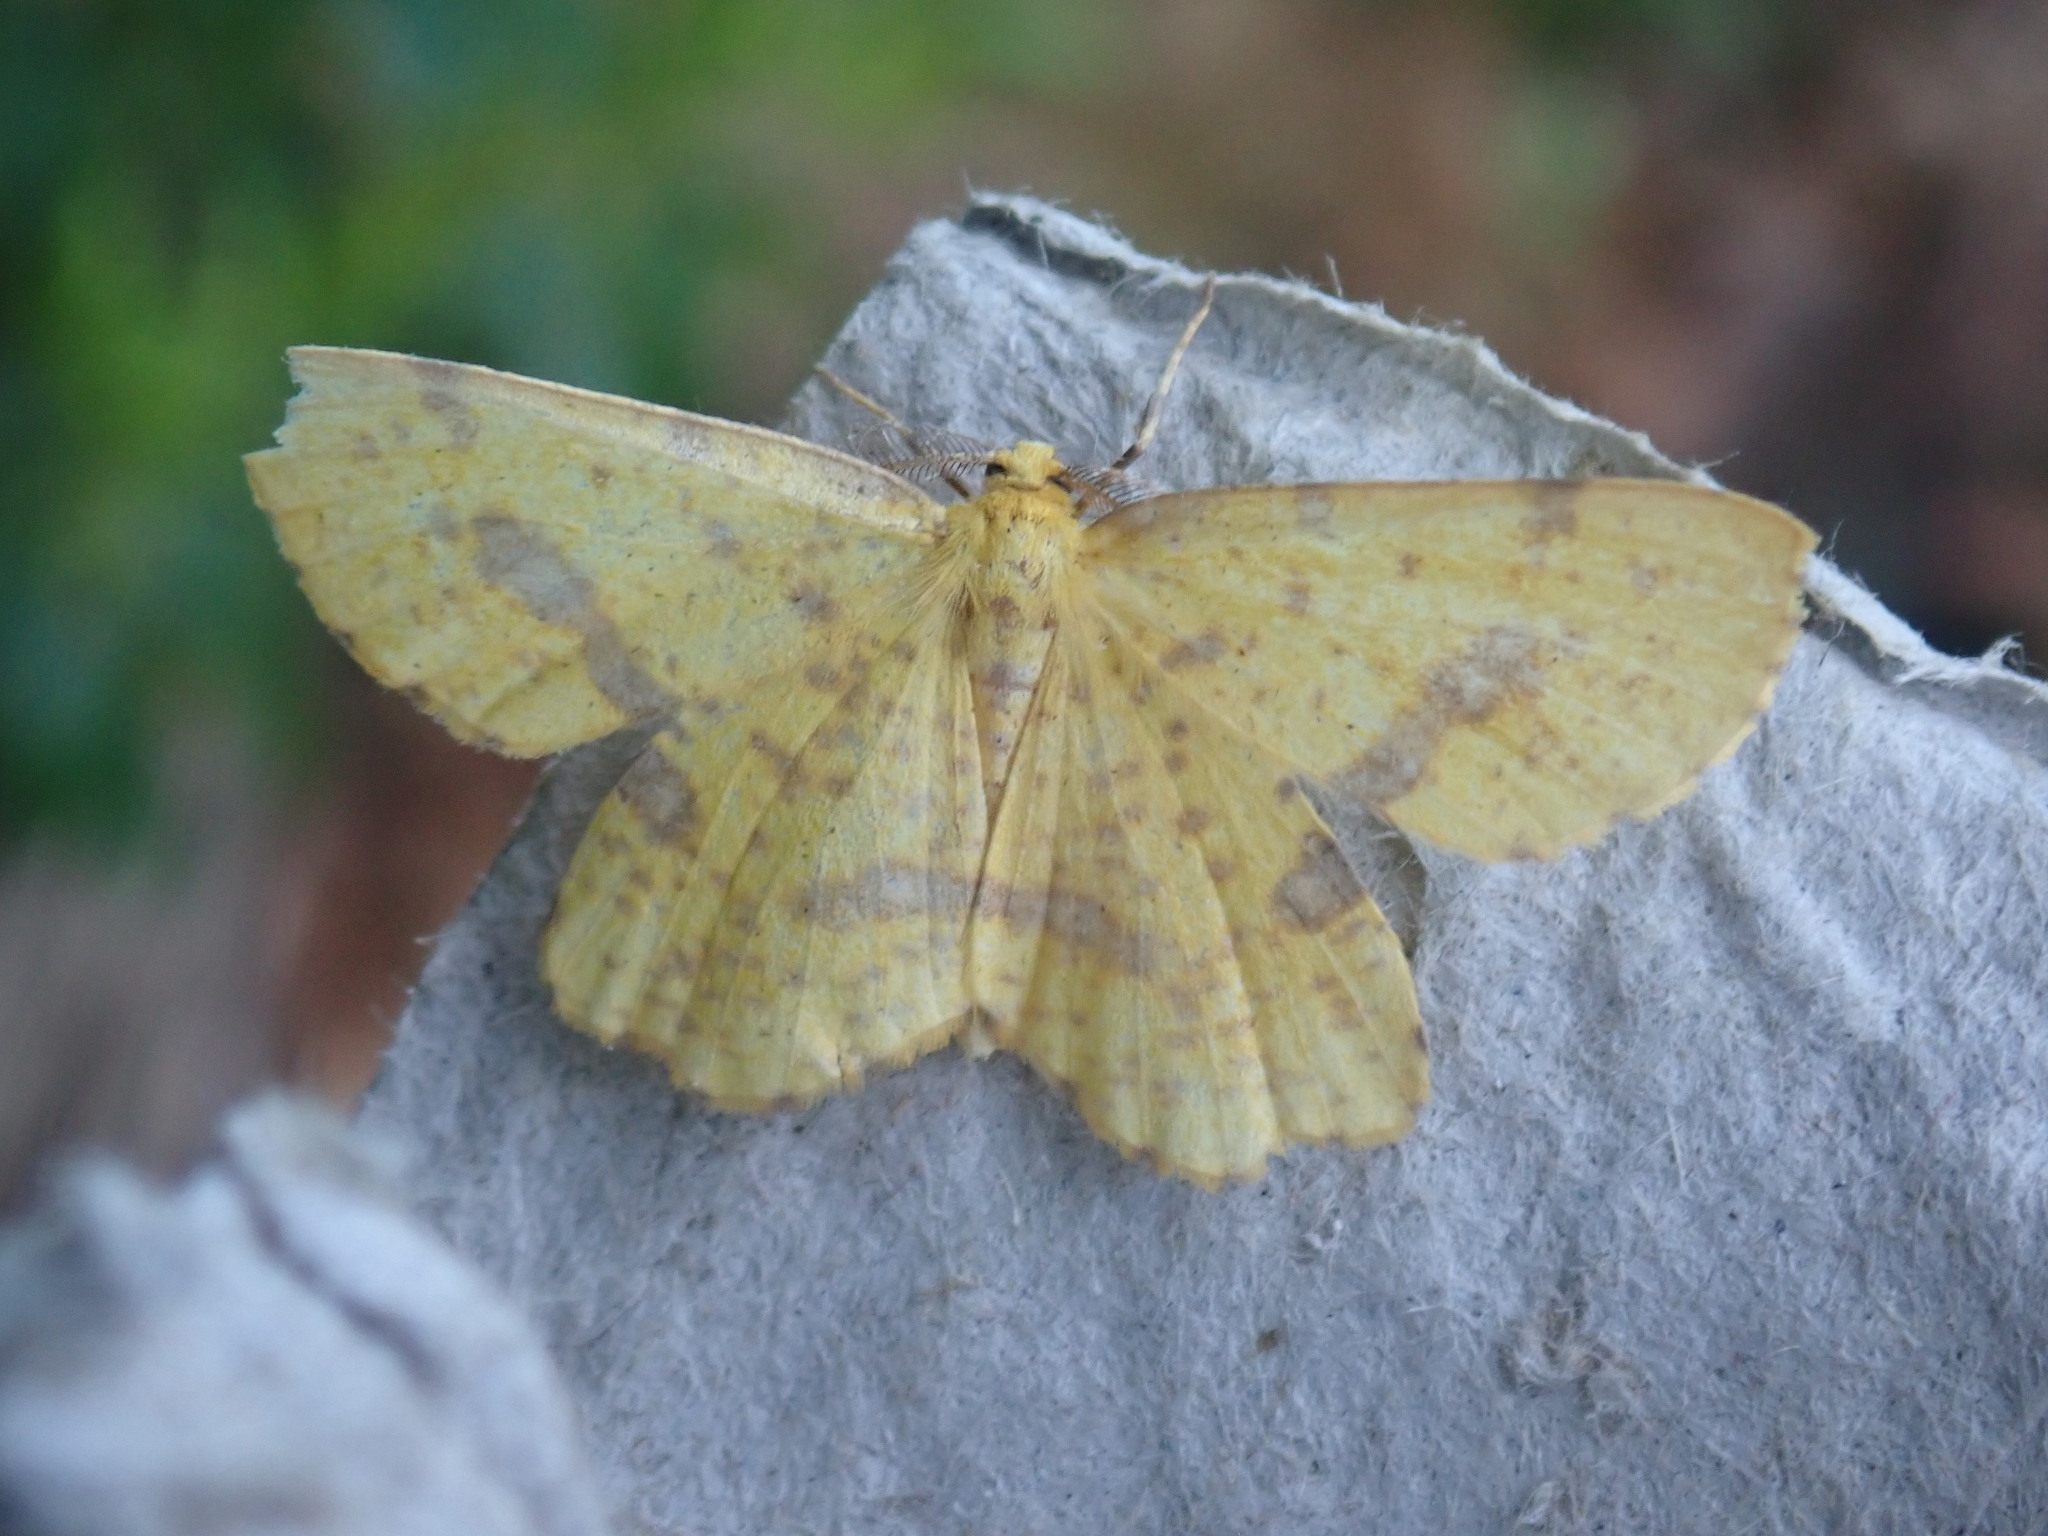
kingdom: Animalia
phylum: Arthropoda
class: Insecta
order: Lepidoptera
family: Geometridae
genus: Xanthotype
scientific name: Xanthotype
